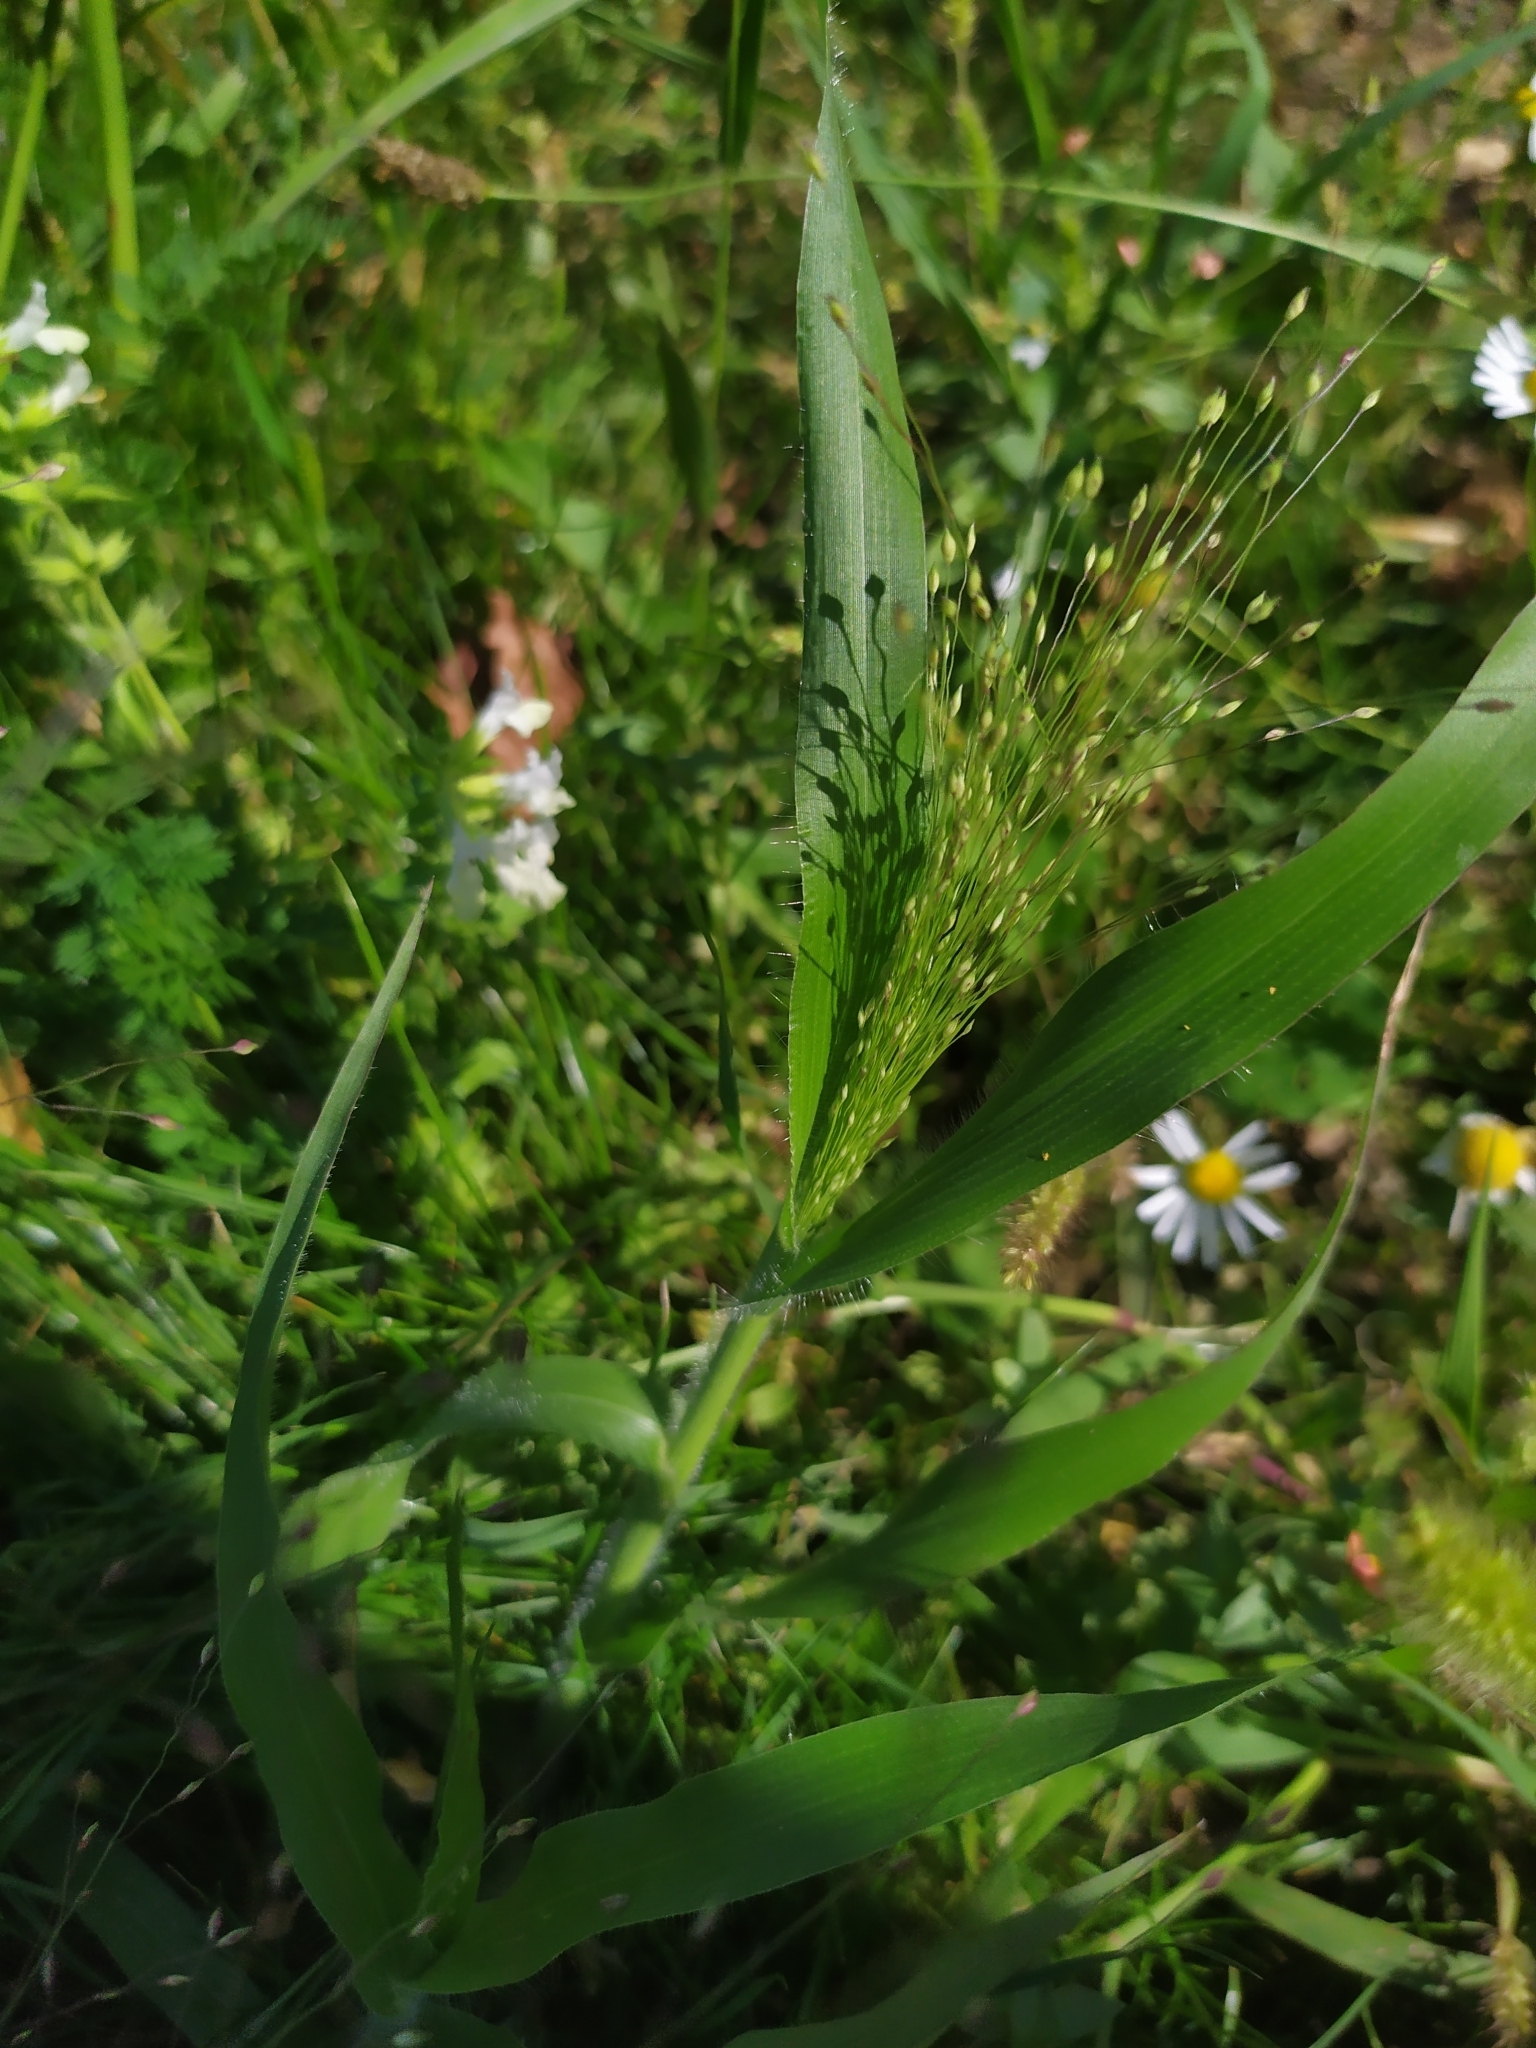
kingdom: Plantae
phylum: Tracheophyta
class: Liliopsida
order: Poales
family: Poaceae
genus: Panicum
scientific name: Panicum capillare
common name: Witch-grass
